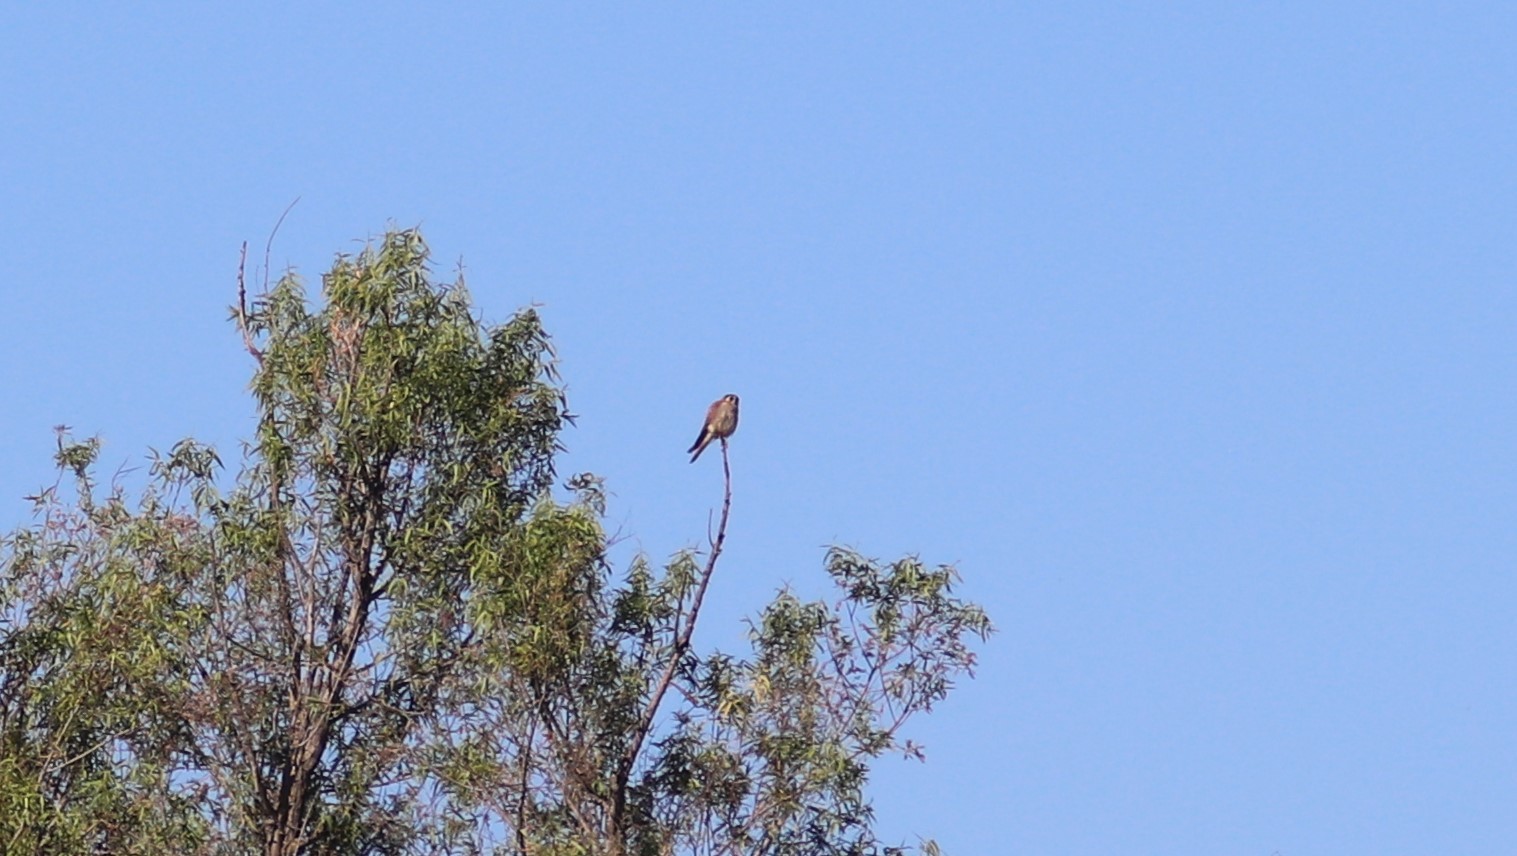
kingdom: Animalia
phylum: Chordata
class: Aves
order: Falconiformes
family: Falconidae
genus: Falco
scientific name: Falco sparverius
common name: American kestrel
